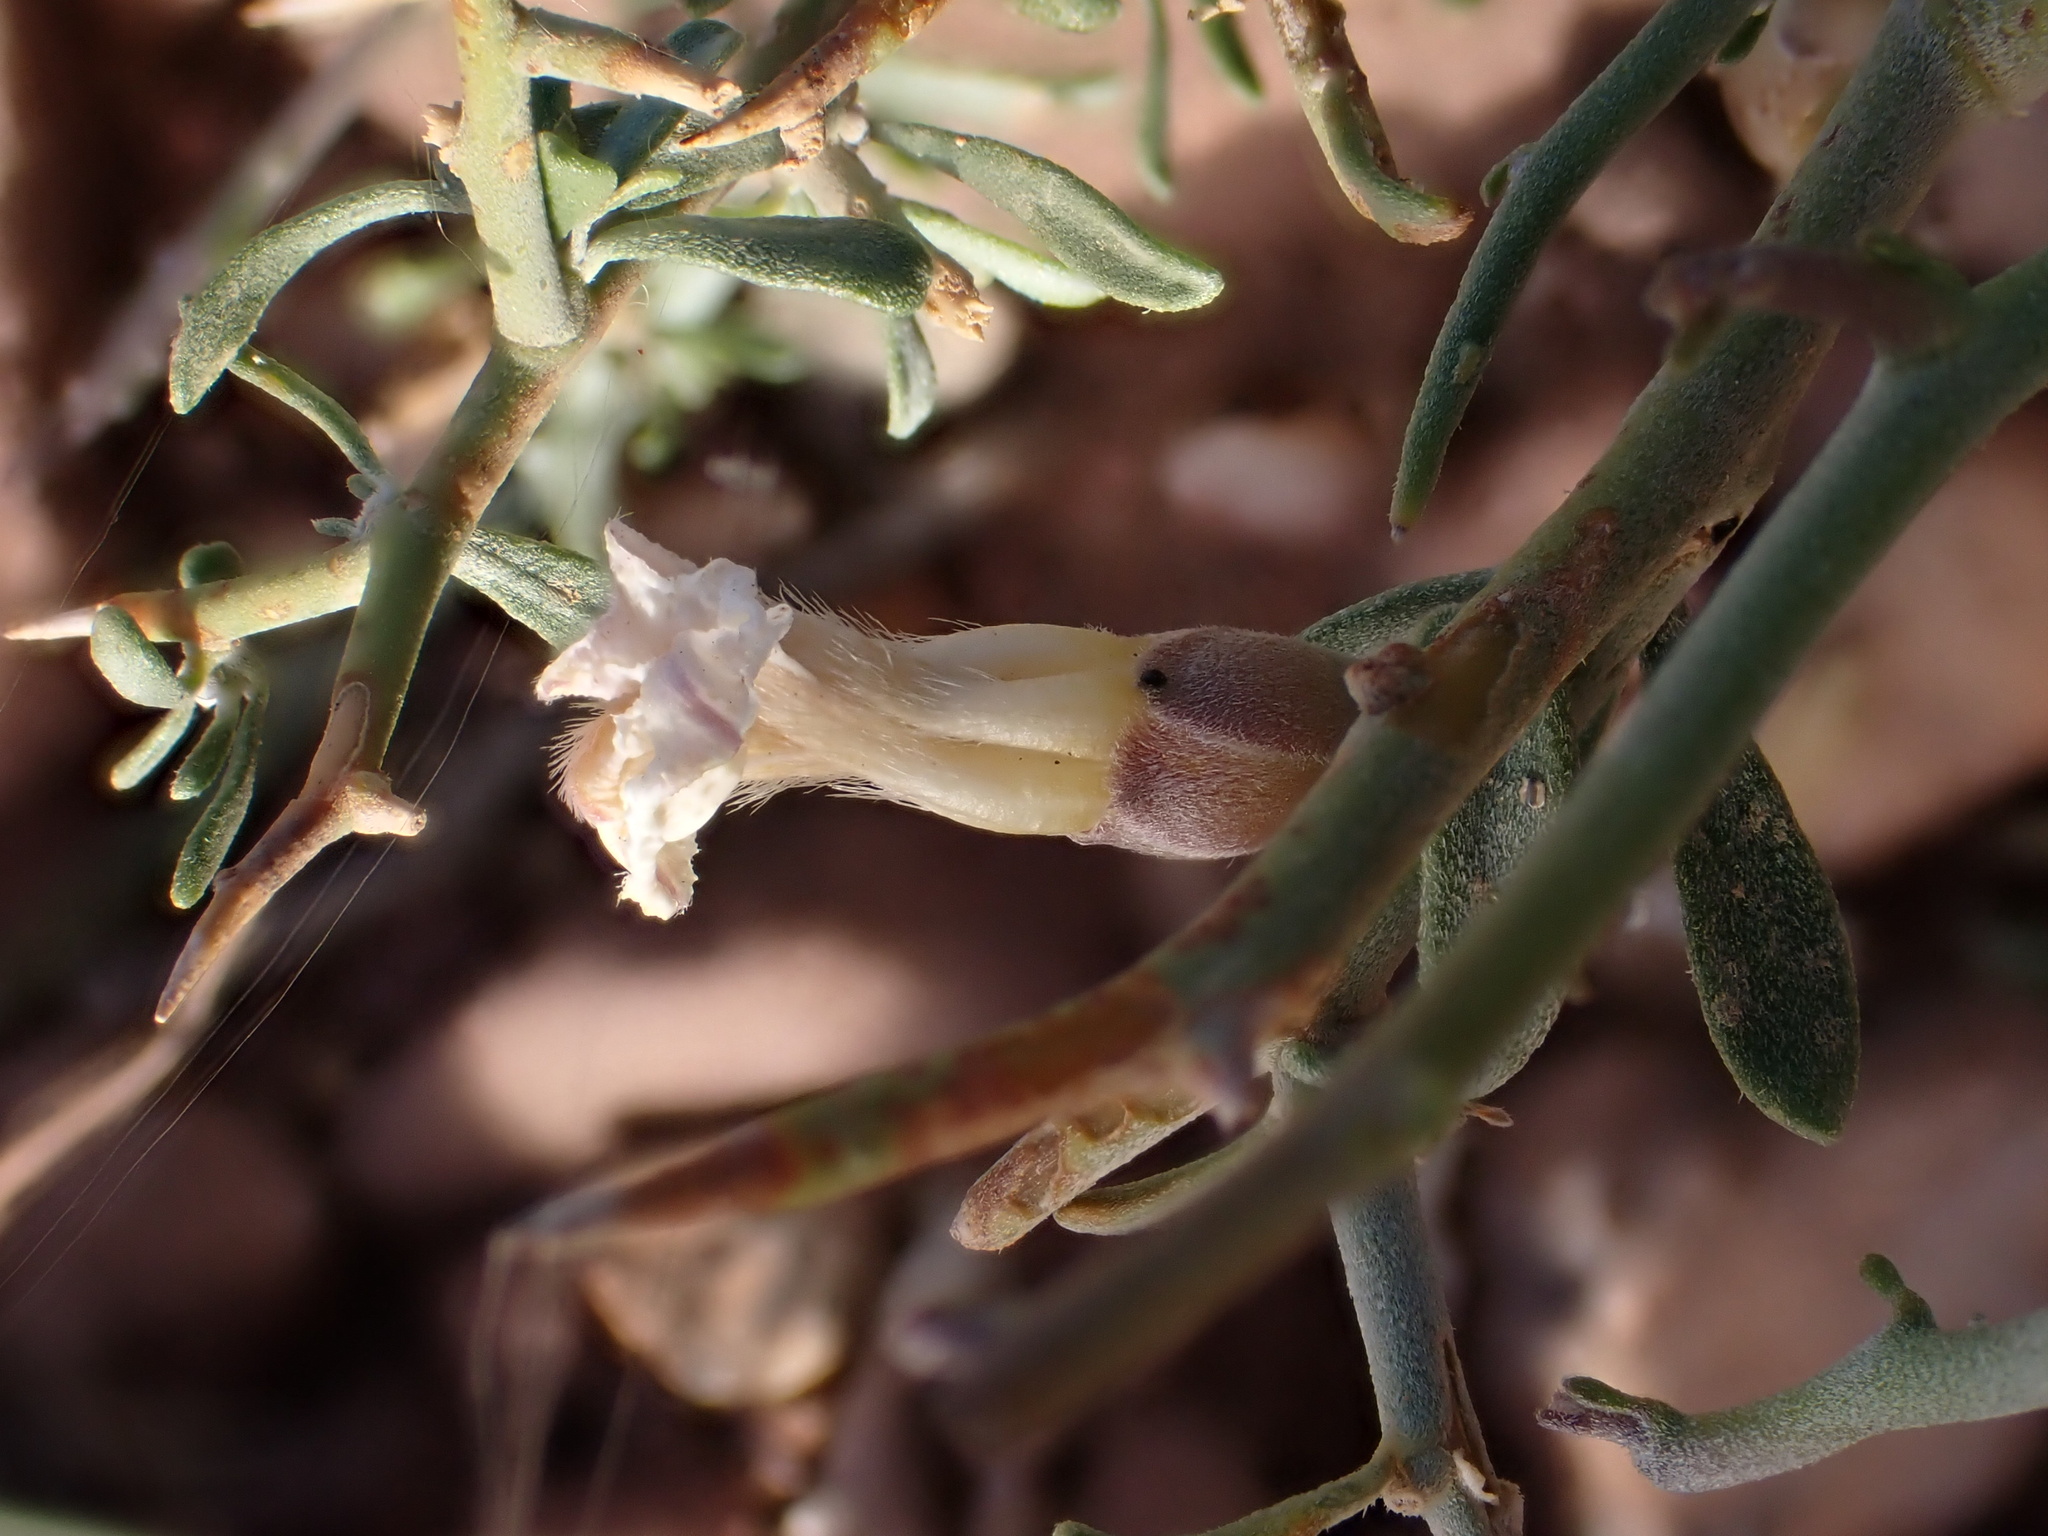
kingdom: Plantae
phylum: Tracheophyta
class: Magnoliopsida
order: Solanales
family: Convolvulaceae
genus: Convolvulus
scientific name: Convolvulus trabutianus
